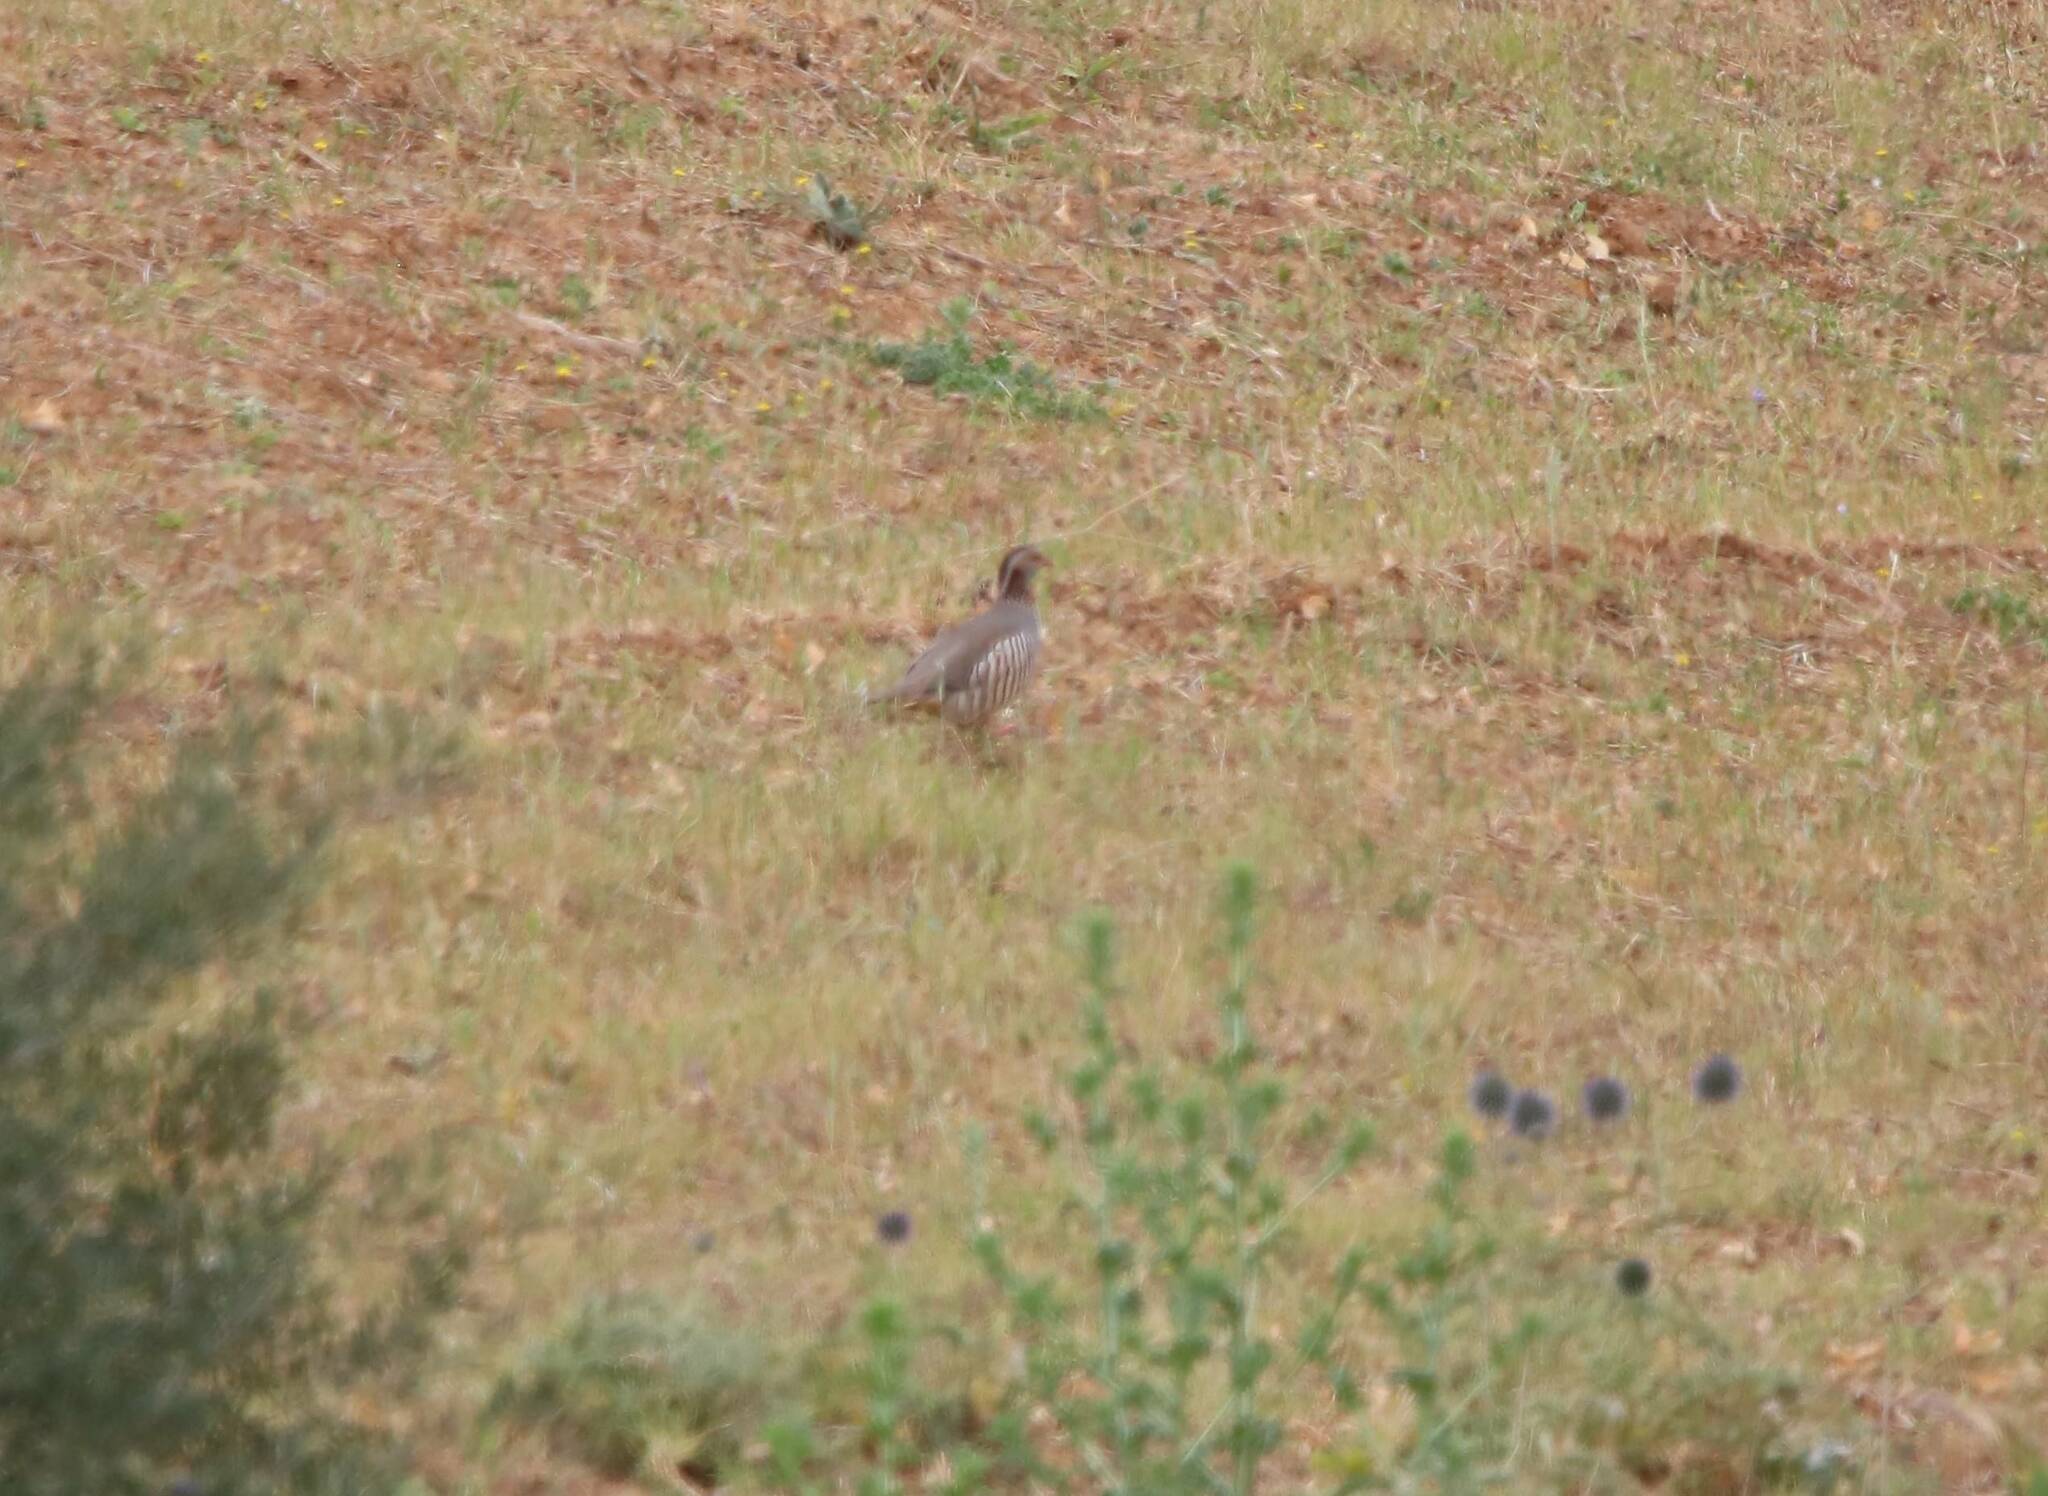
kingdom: Animalia
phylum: Chordata
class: Aves
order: Galliformes
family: Phasianidae
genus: Alectoris
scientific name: Alectoris barbara
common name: Barbary partridge
